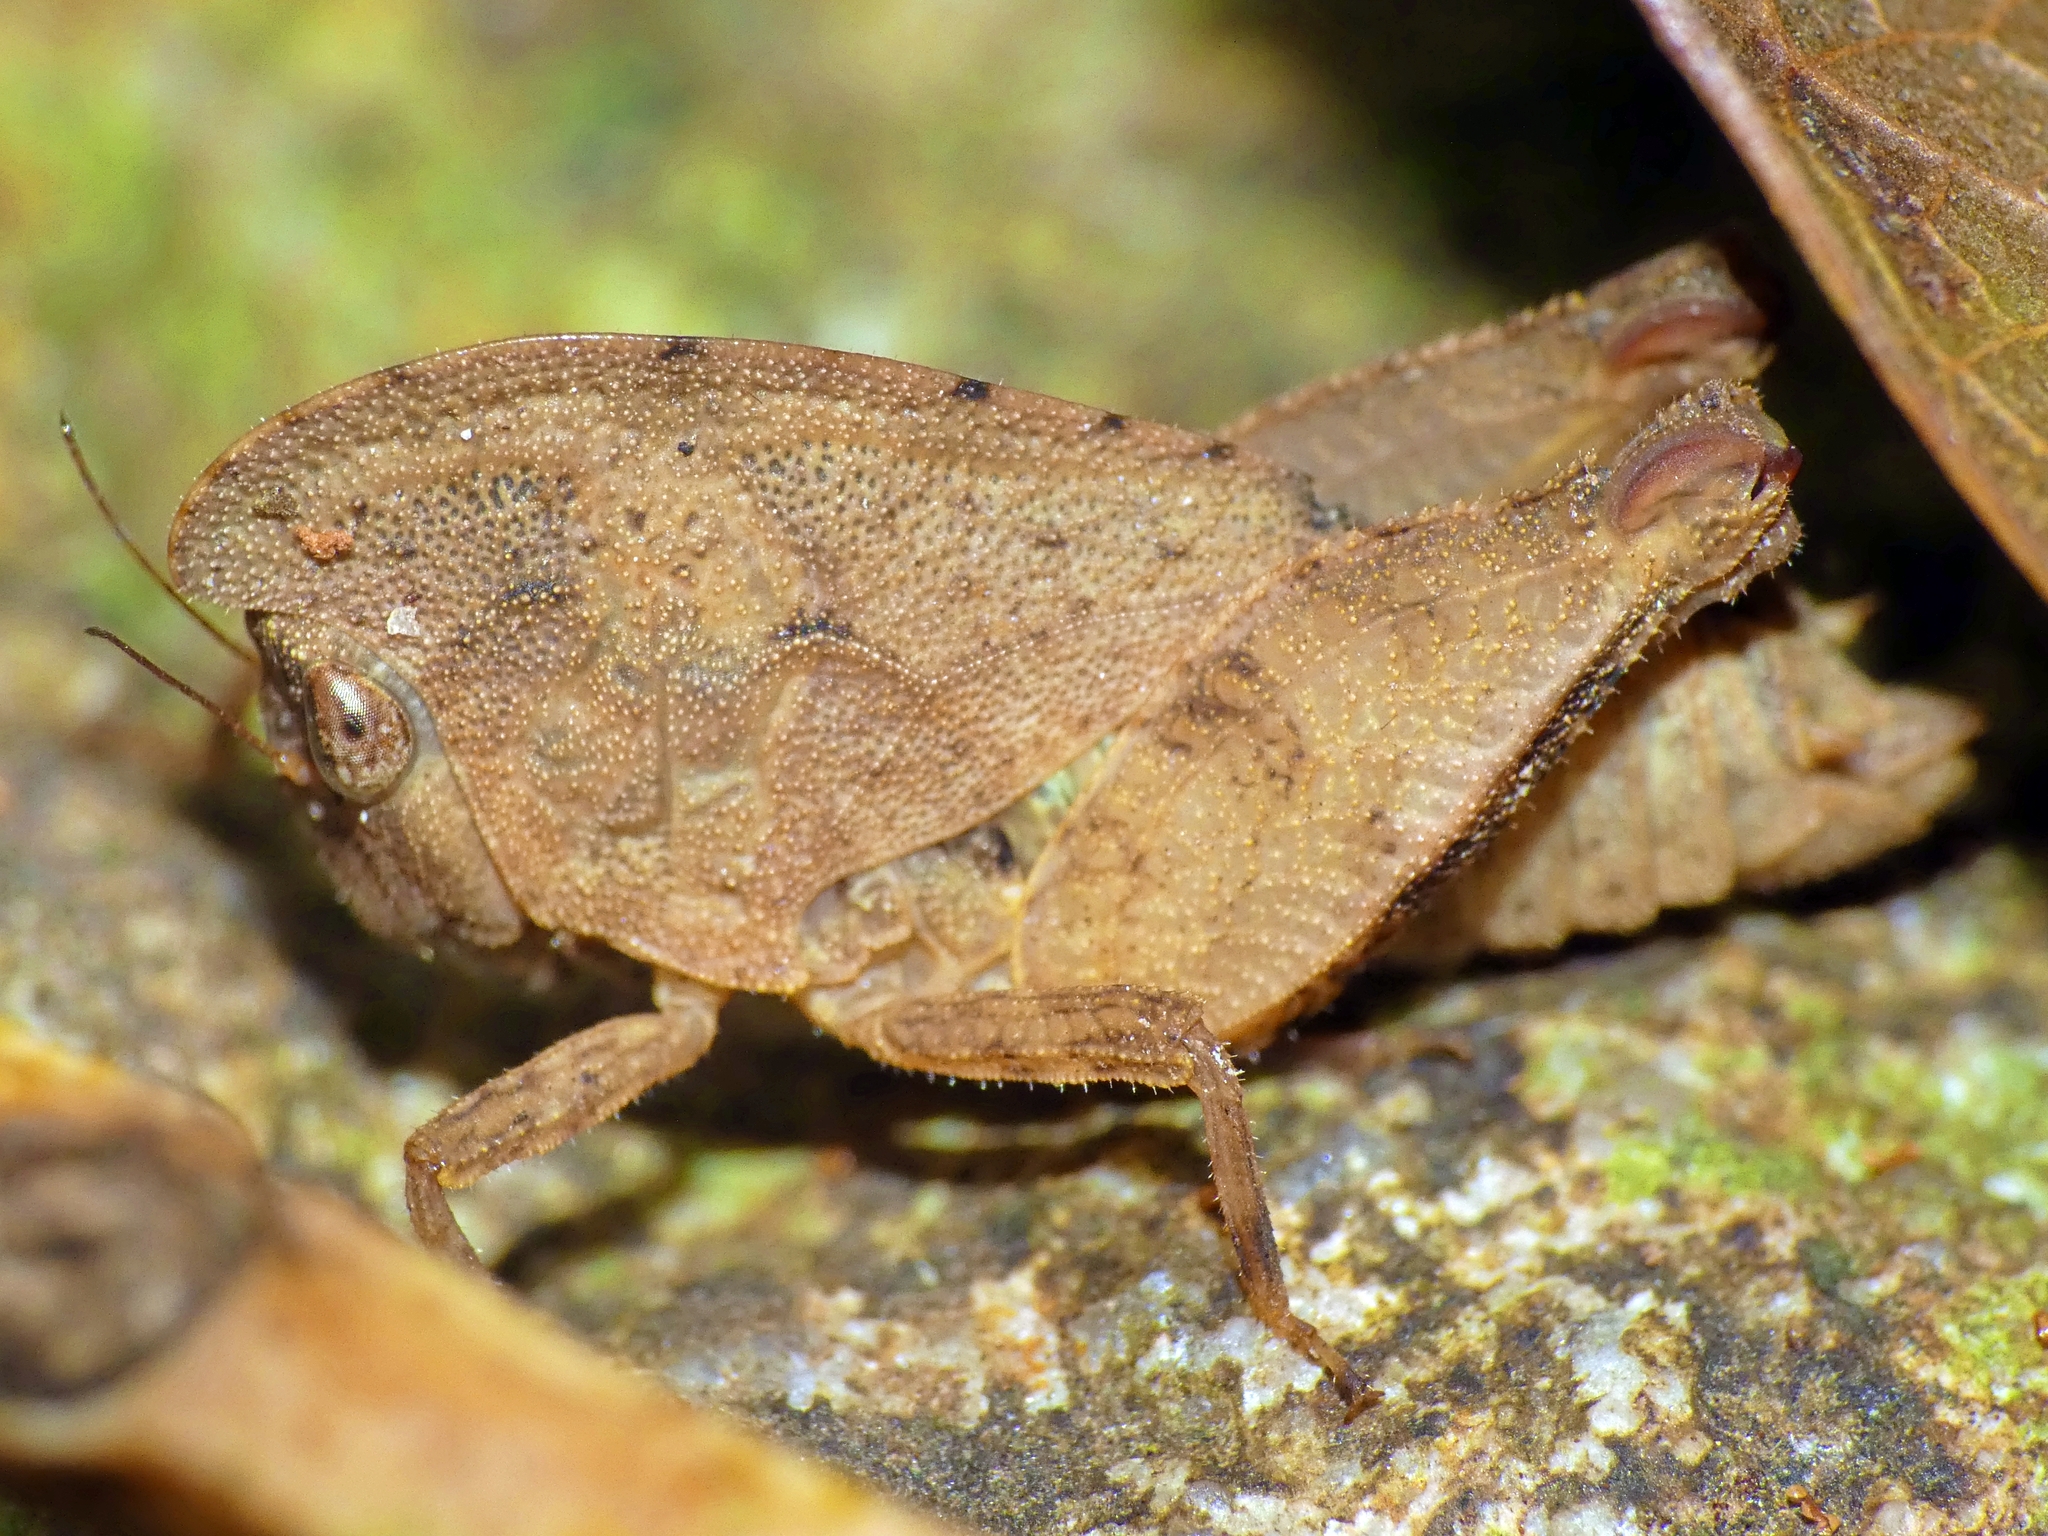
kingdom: Animalia
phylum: Arthropoda
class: Insecta
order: Orthoptera
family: Tetrigidae
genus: Selivinga
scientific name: Selivinga tribulata
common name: Tribulation helmed groundhopper
